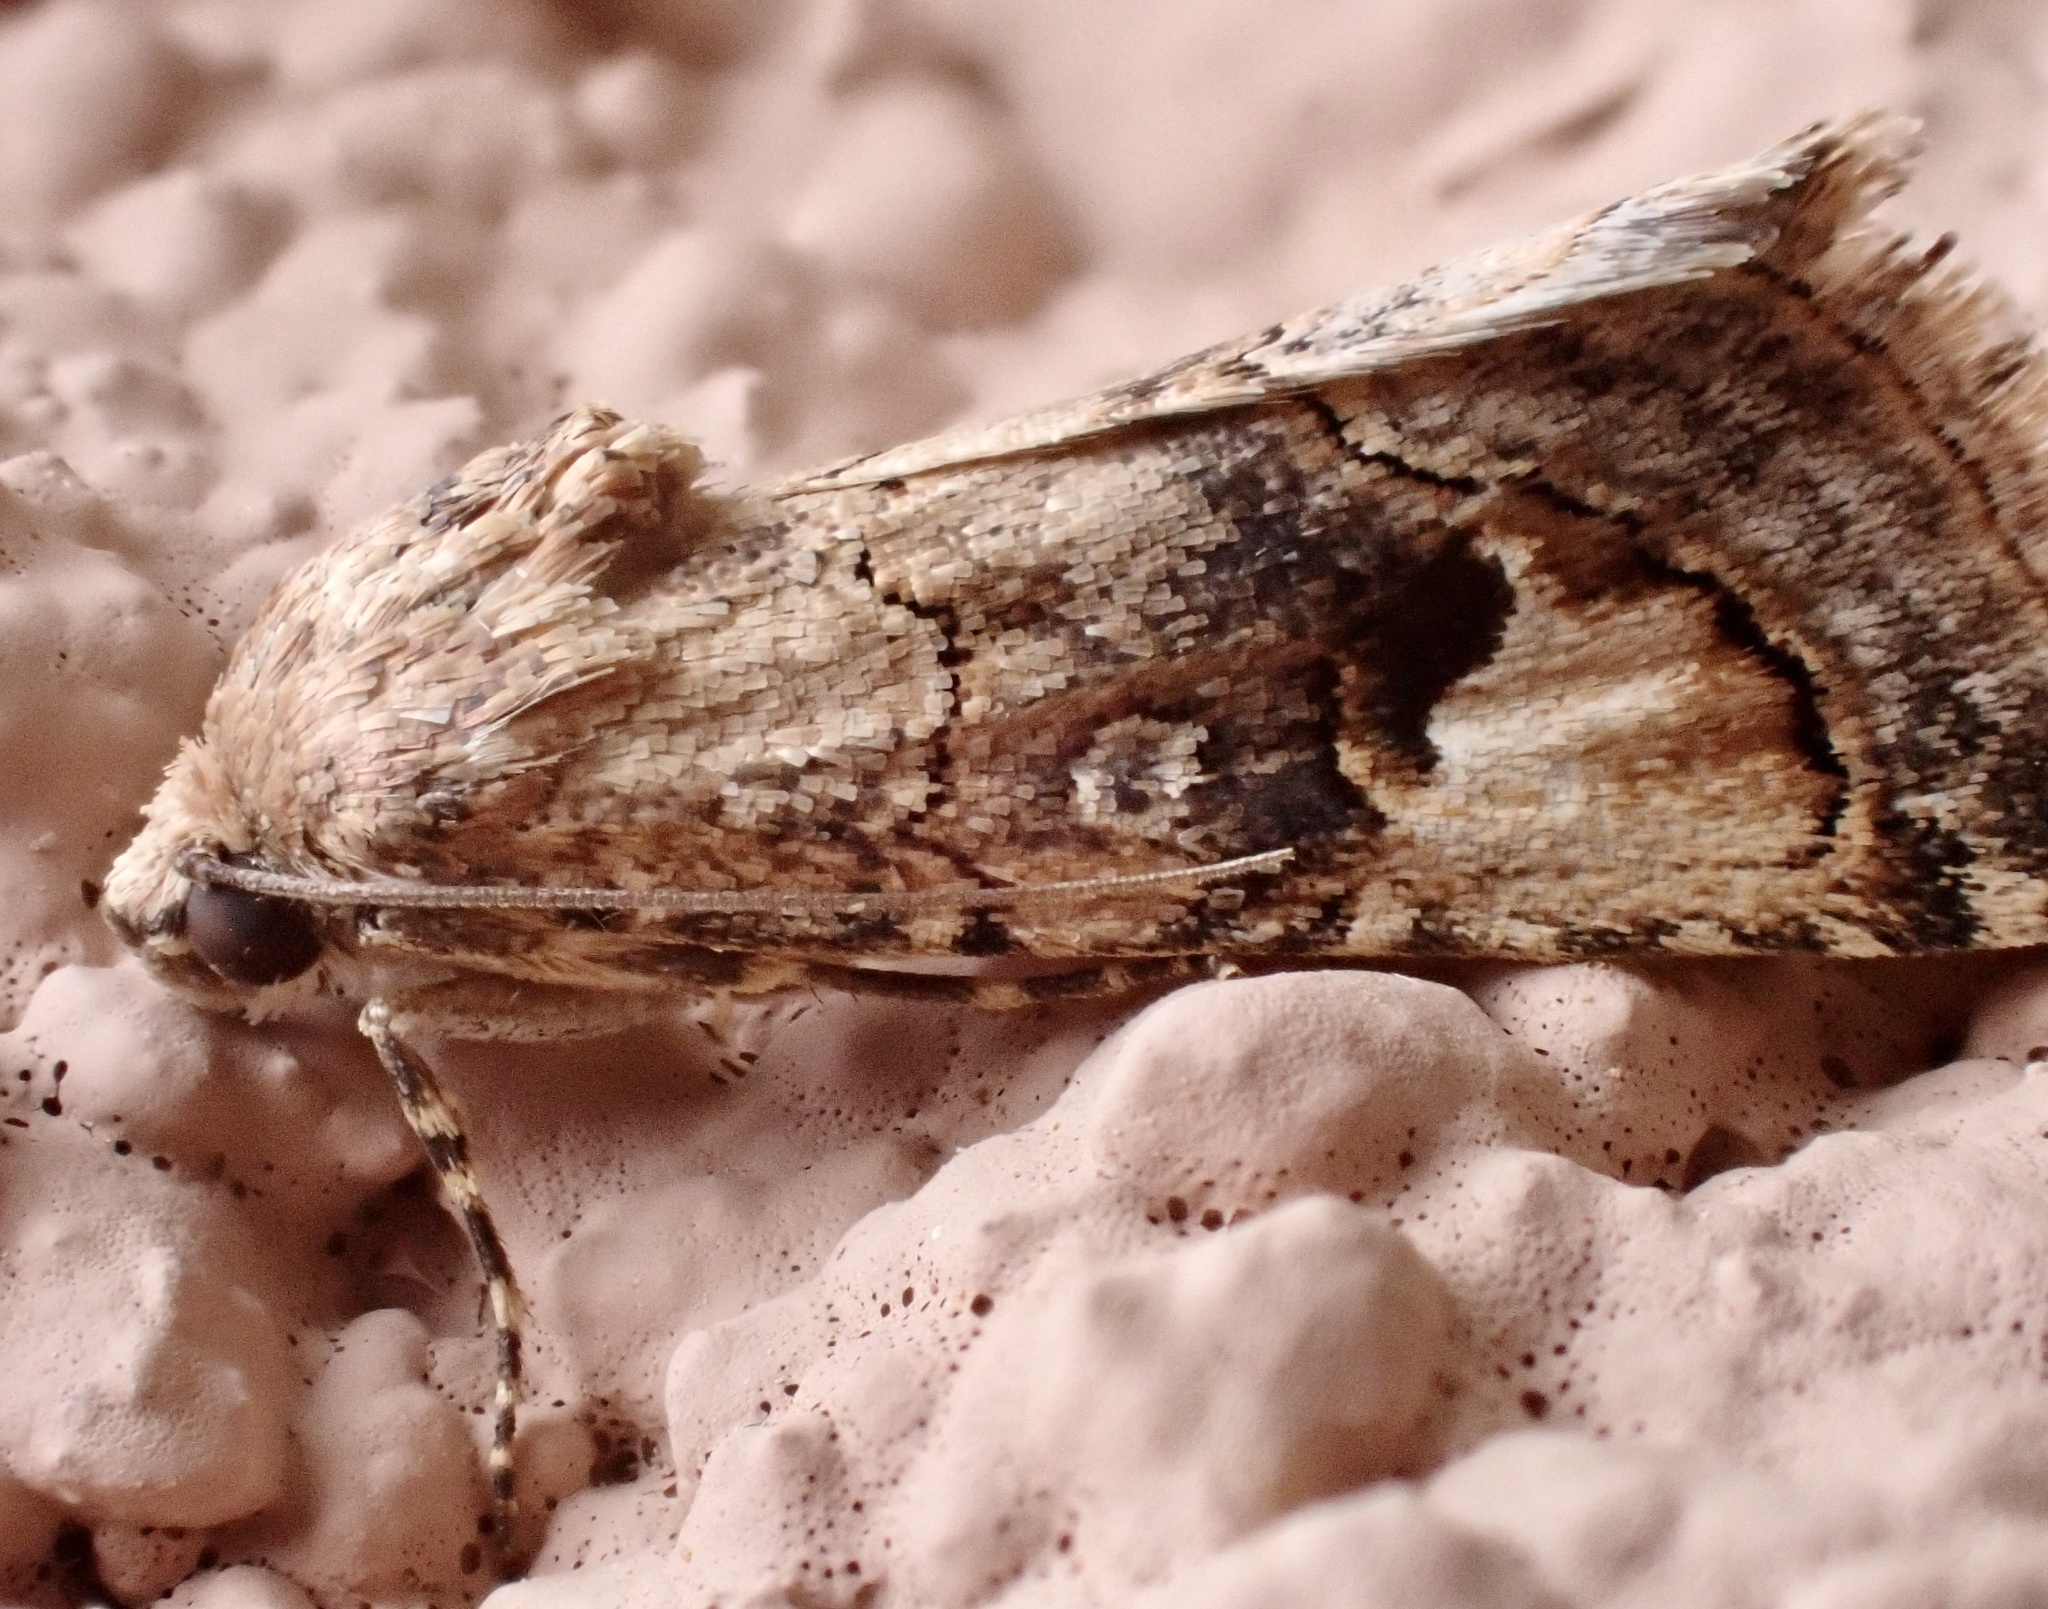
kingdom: Animalia
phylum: Arthropoda
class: Insecta
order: Lepidoptera
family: Erebidae
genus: Epharmottomena
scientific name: Epharmottomena eremophila
